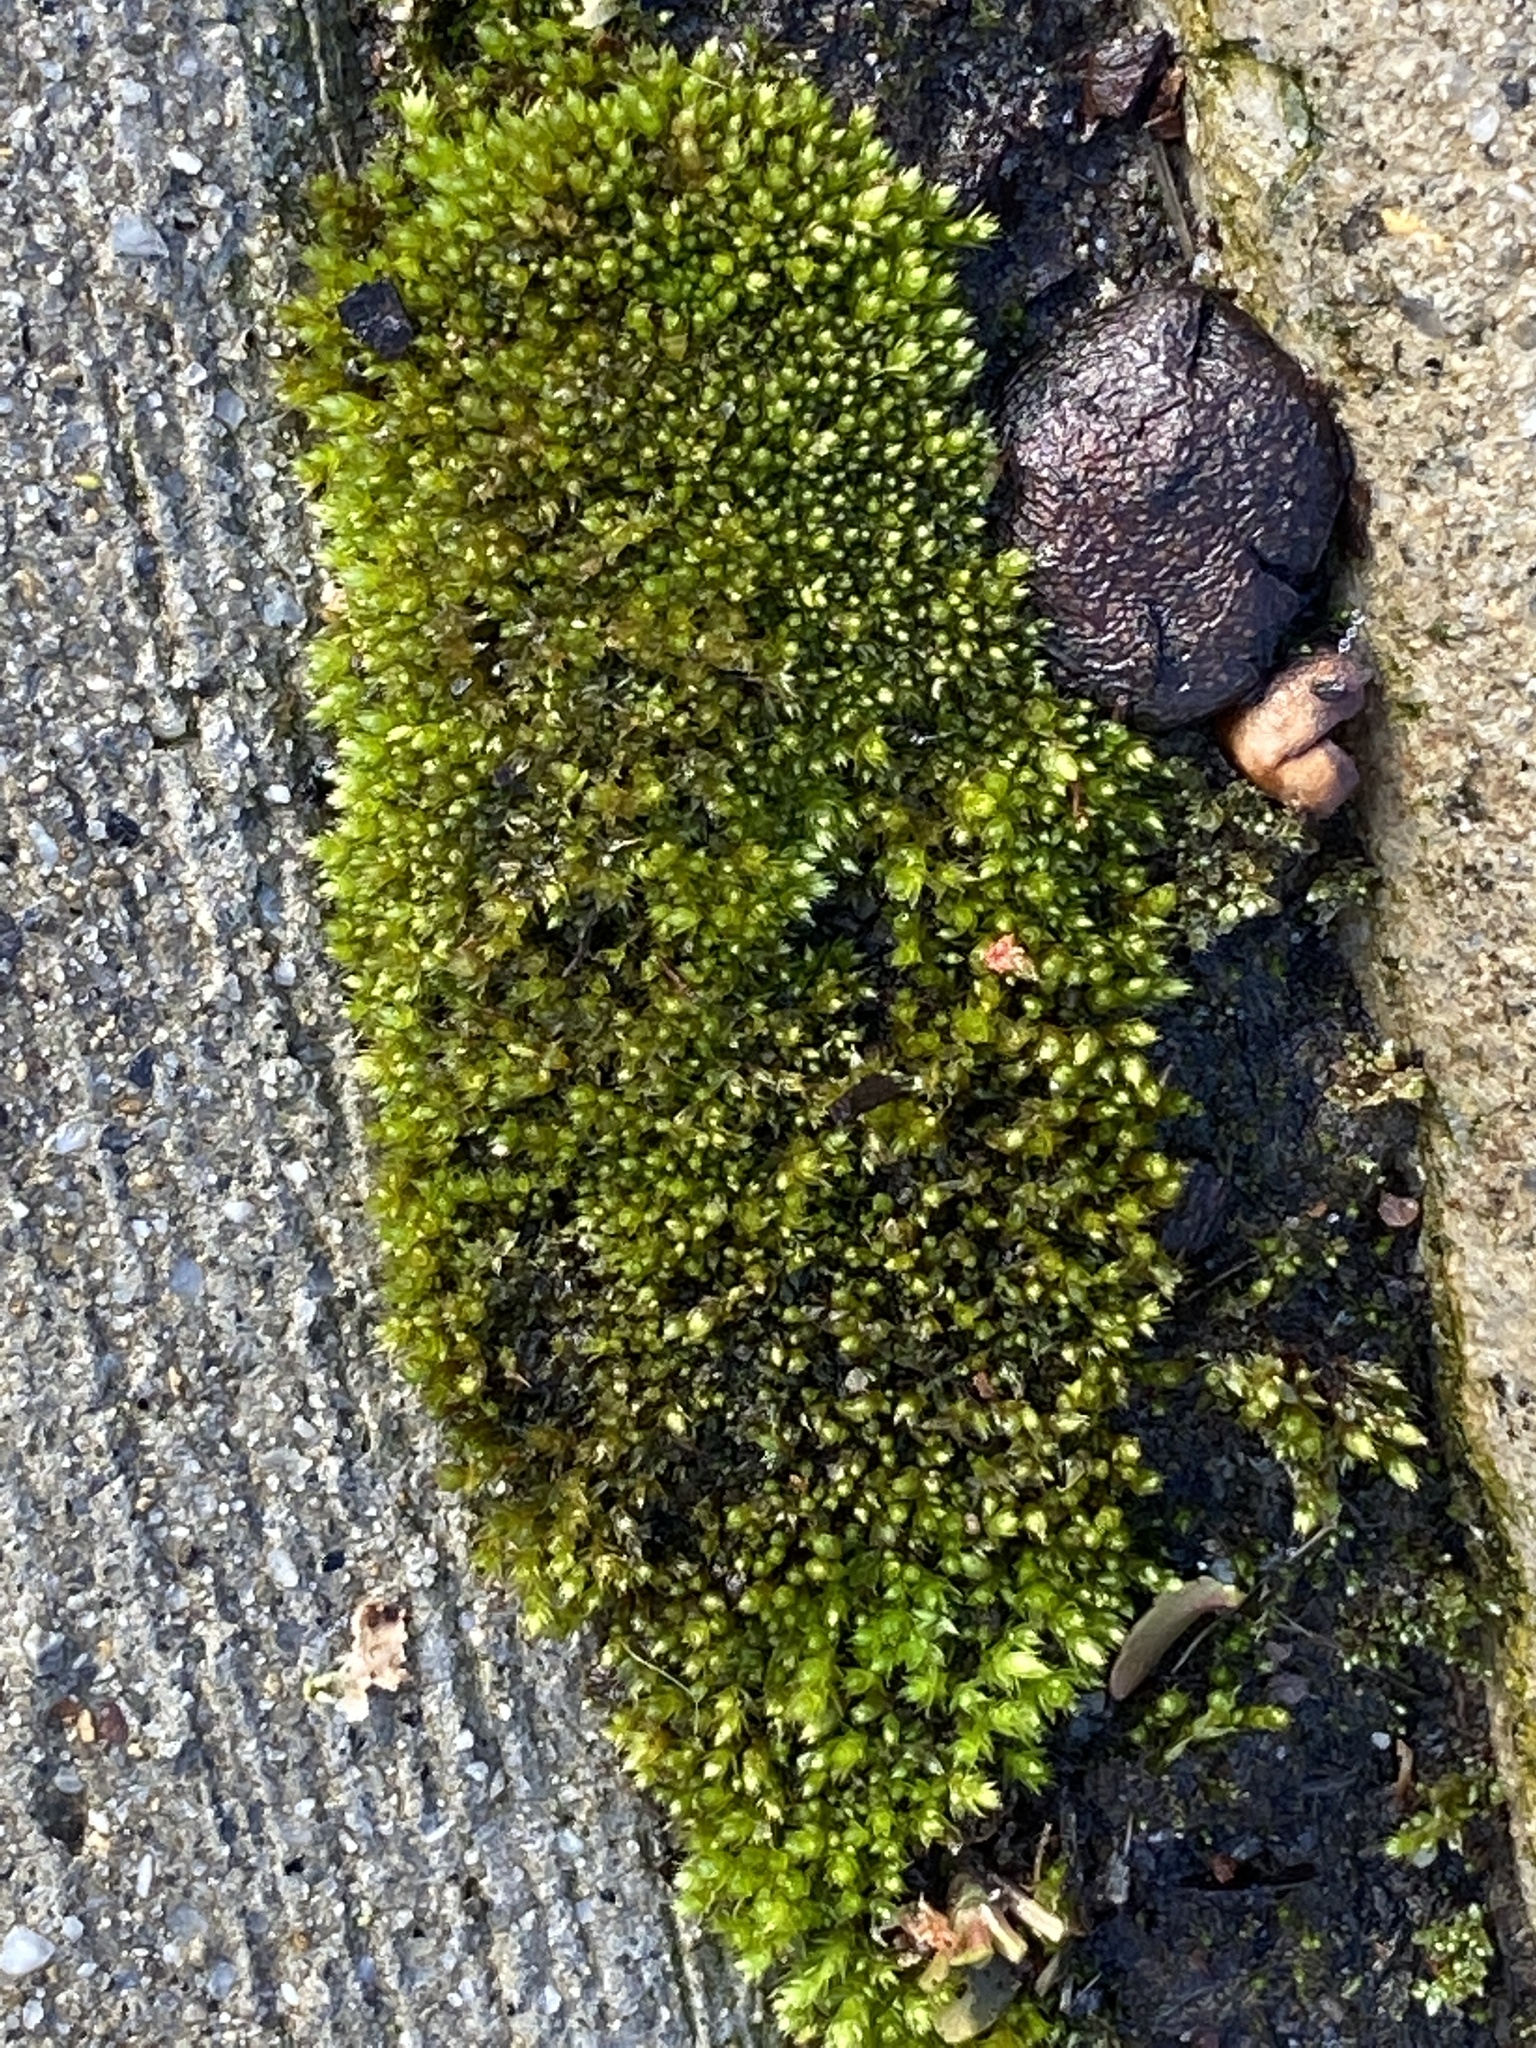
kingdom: Plantae
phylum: Bryophyta
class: Bryopsida
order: Bryales
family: Bryaceae
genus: Bryum
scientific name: Bryum argenteum
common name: Silver-moss
